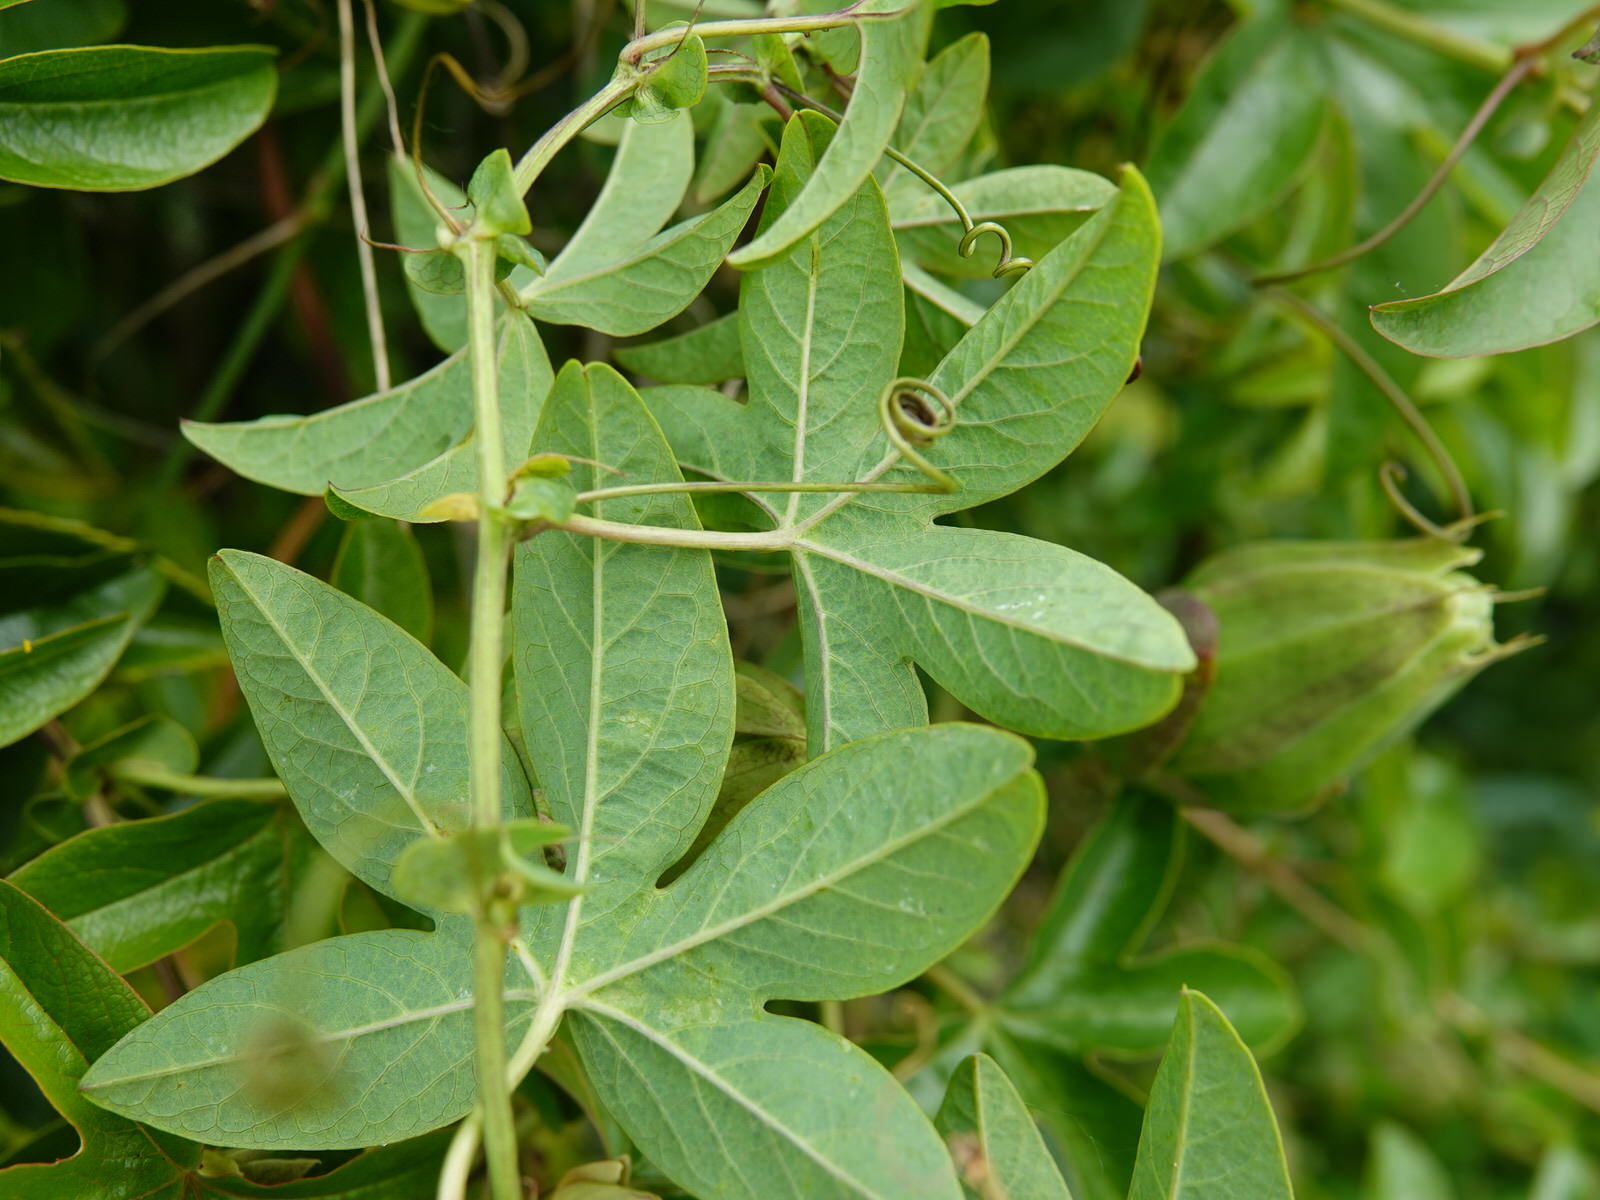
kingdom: Plantae
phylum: Tracheophyta
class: Magnoliopsida
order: Malpighiales
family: Passifloraceae
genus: Passiflora
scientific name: Passiflora caerulea
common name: Blue passionflower
